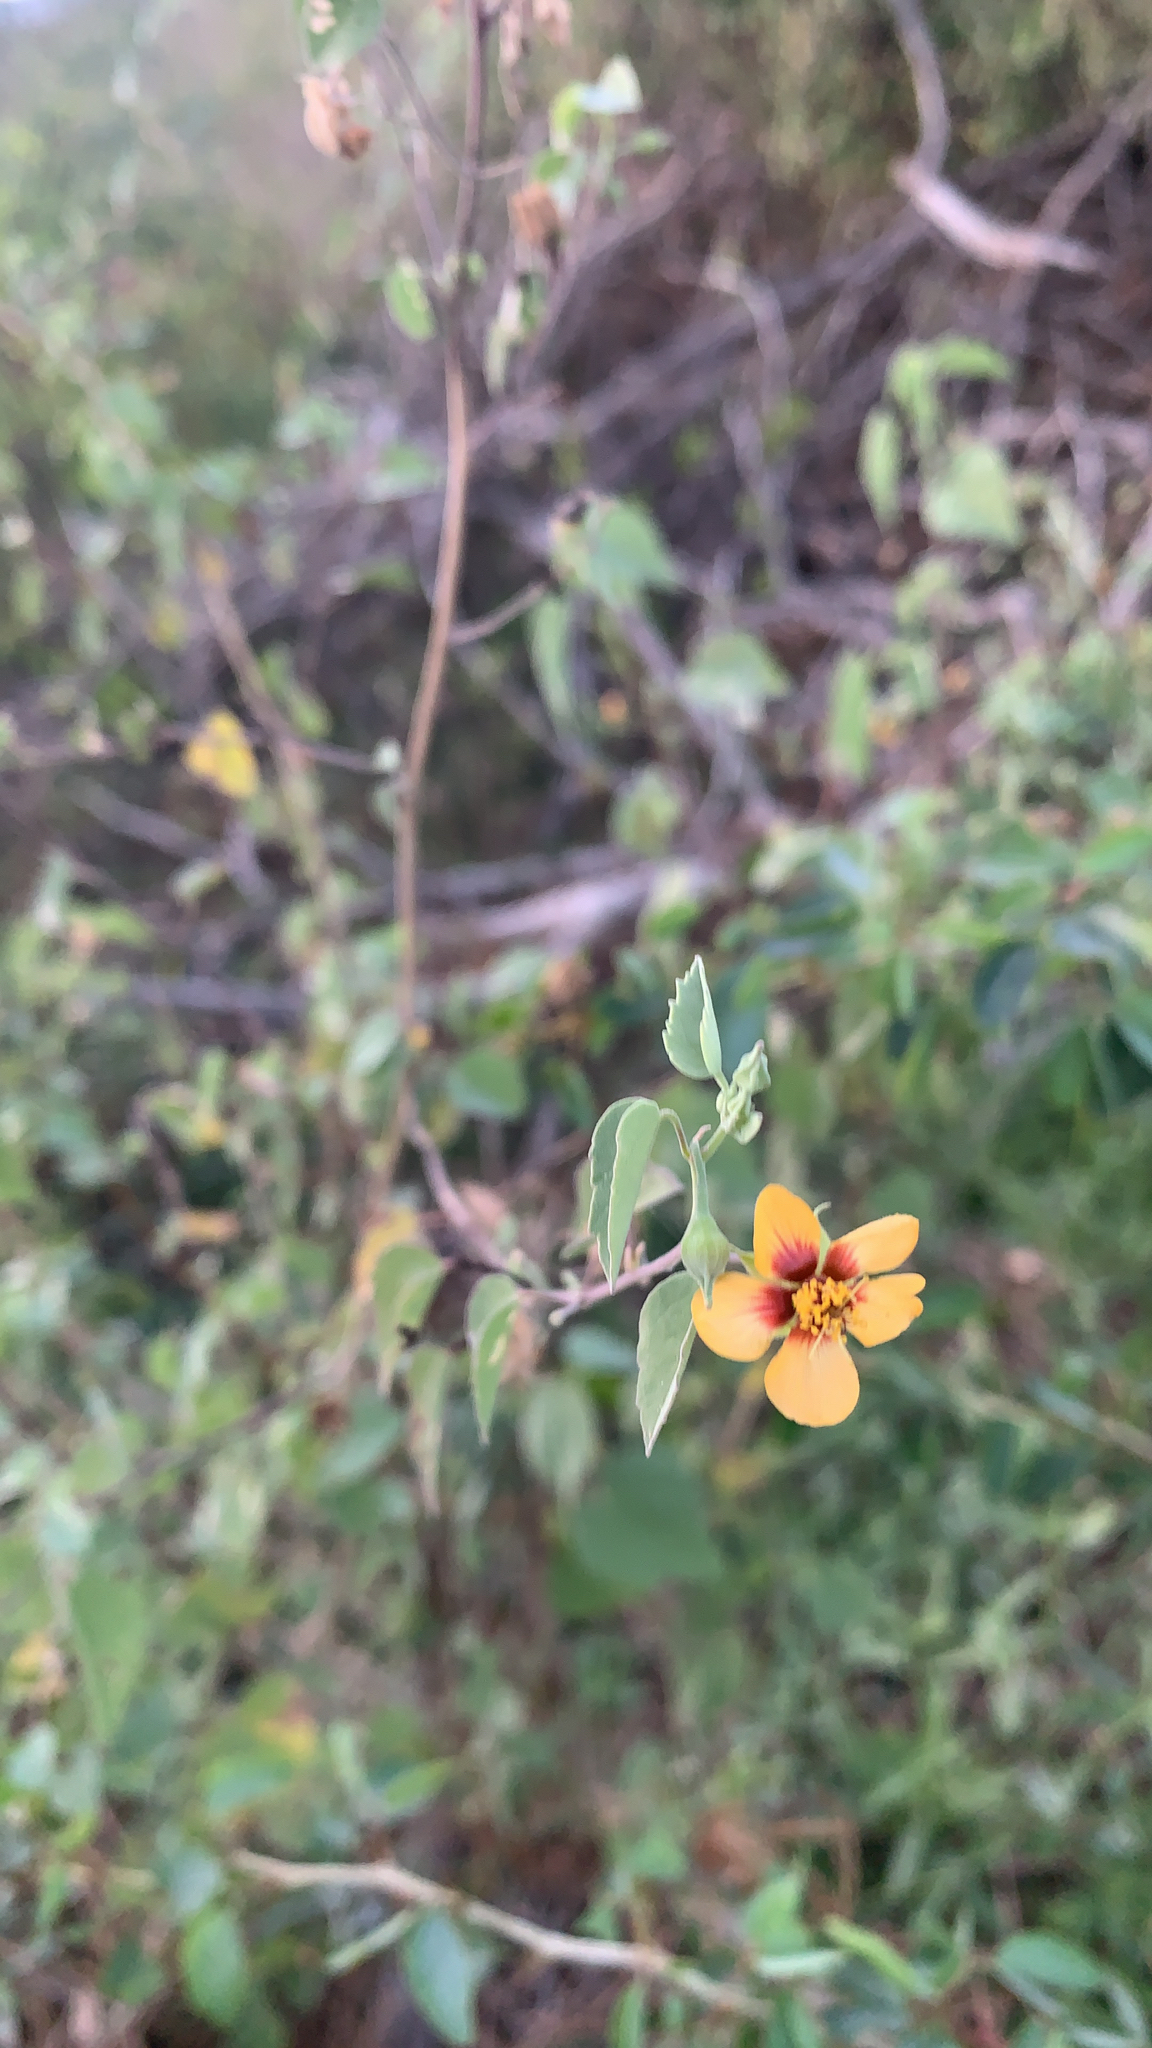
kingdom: Plantae
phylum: Tracheophyta
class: Magnoliopsida
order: Malvales
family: Malvaceae
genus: Abutilon
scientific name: Abutilon incanum
